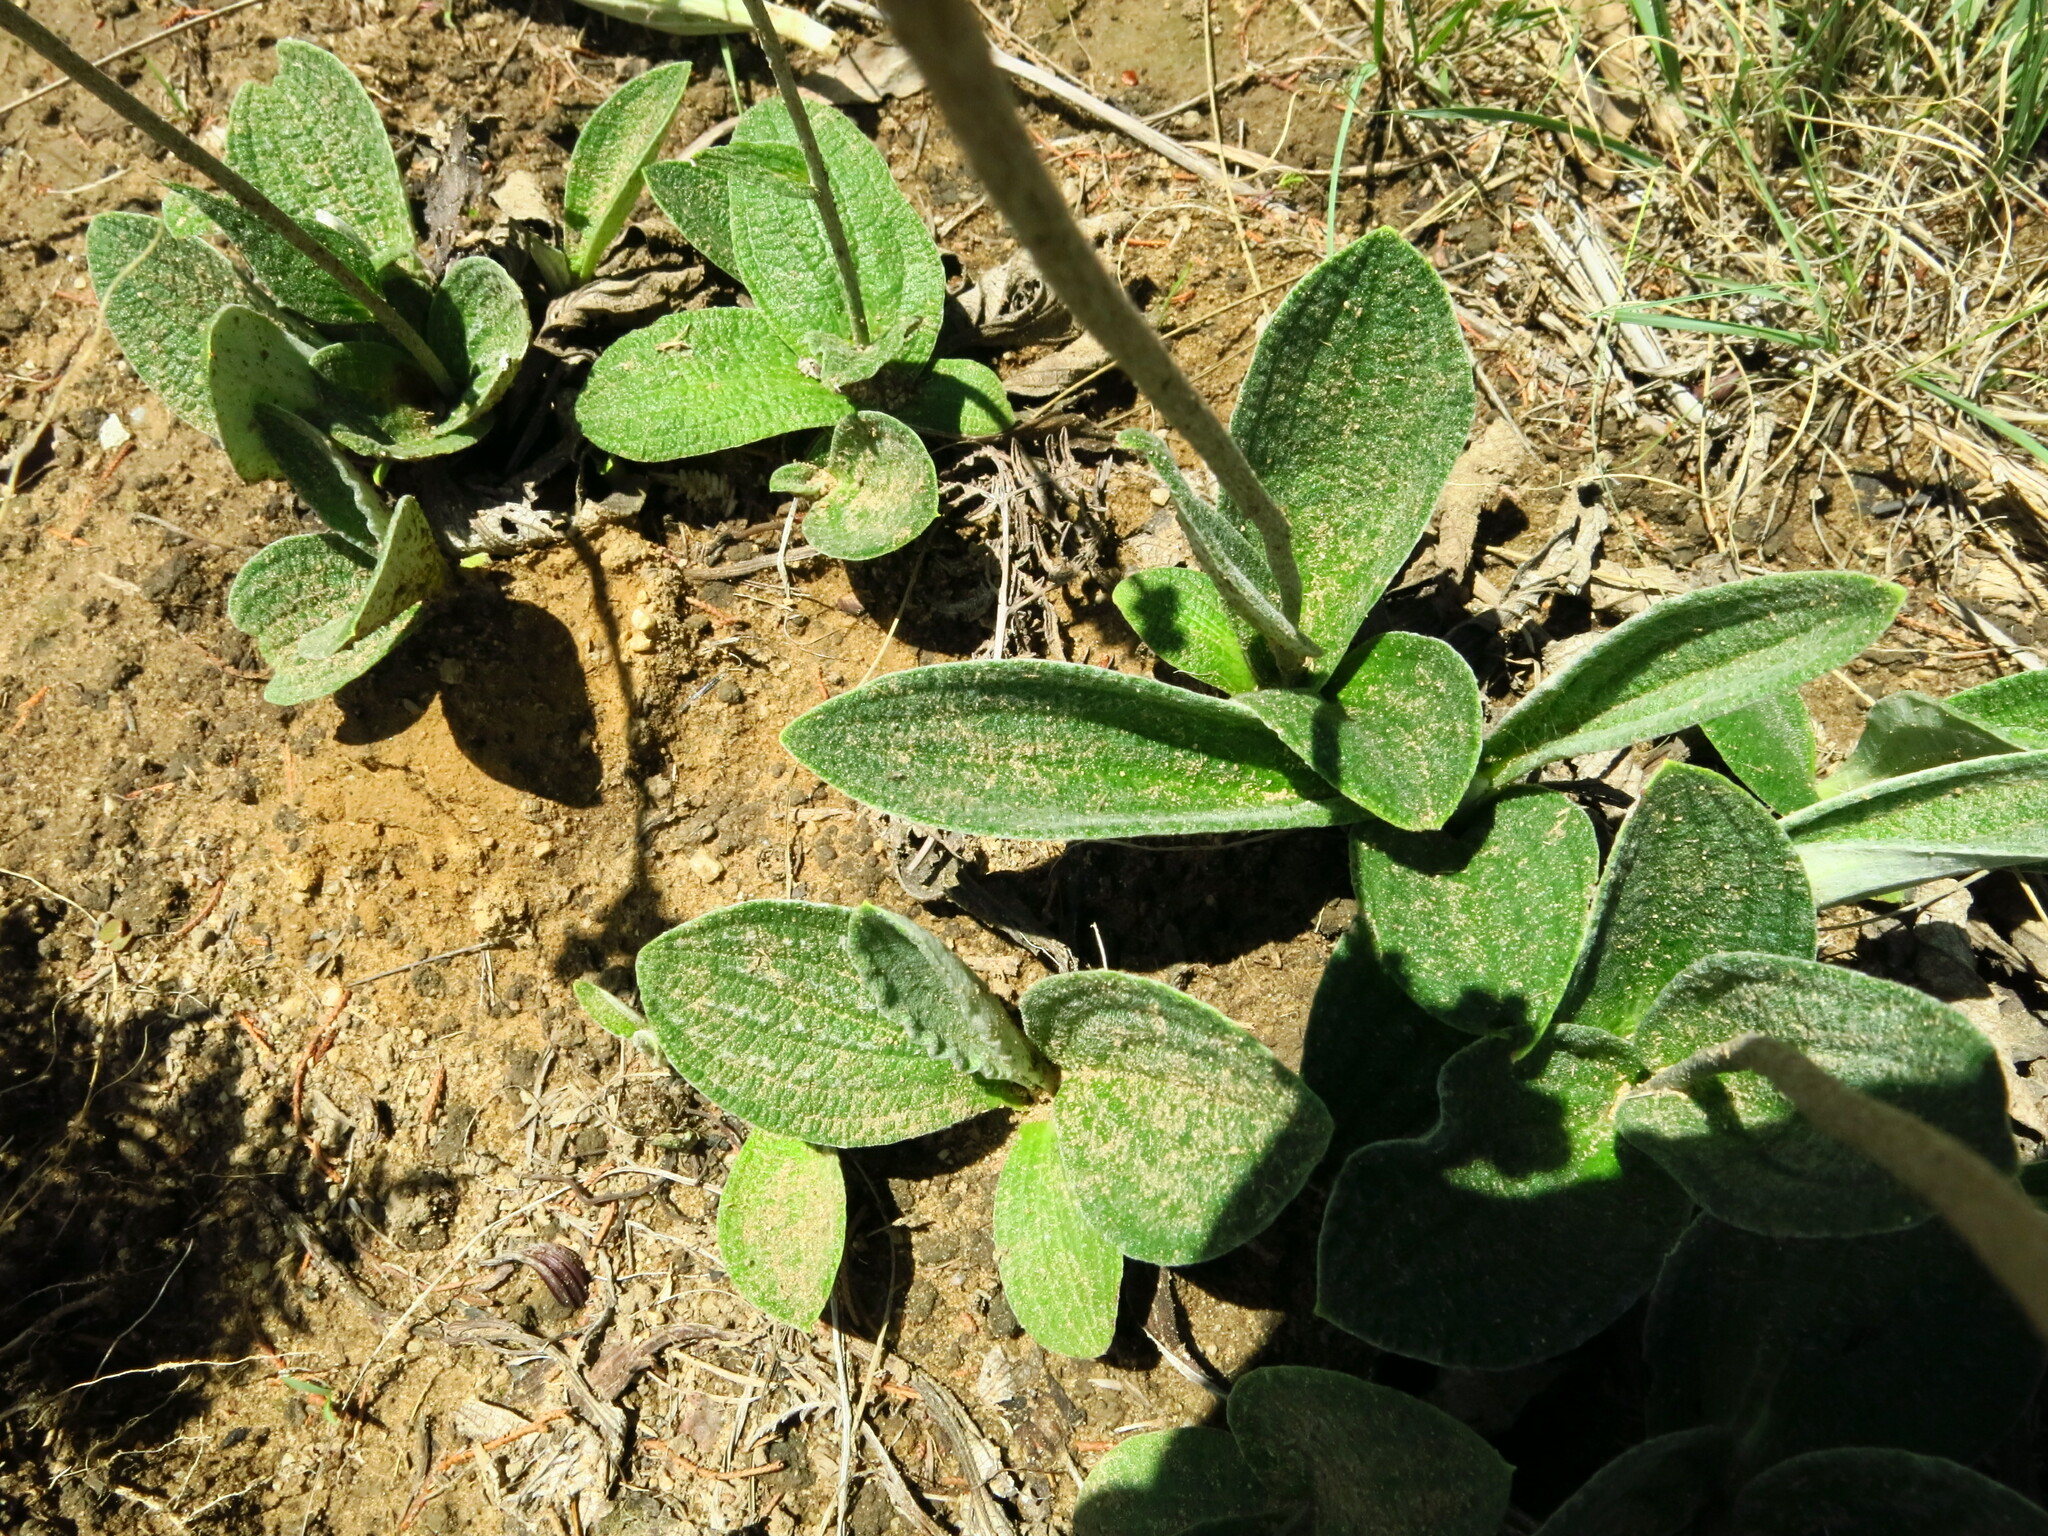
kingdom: Plantae
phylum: Tracheophyta
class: Magnoliopsida
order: Asterales
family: Asteraceae
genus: Helichrysum
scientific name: Helichrysum nudifolium
